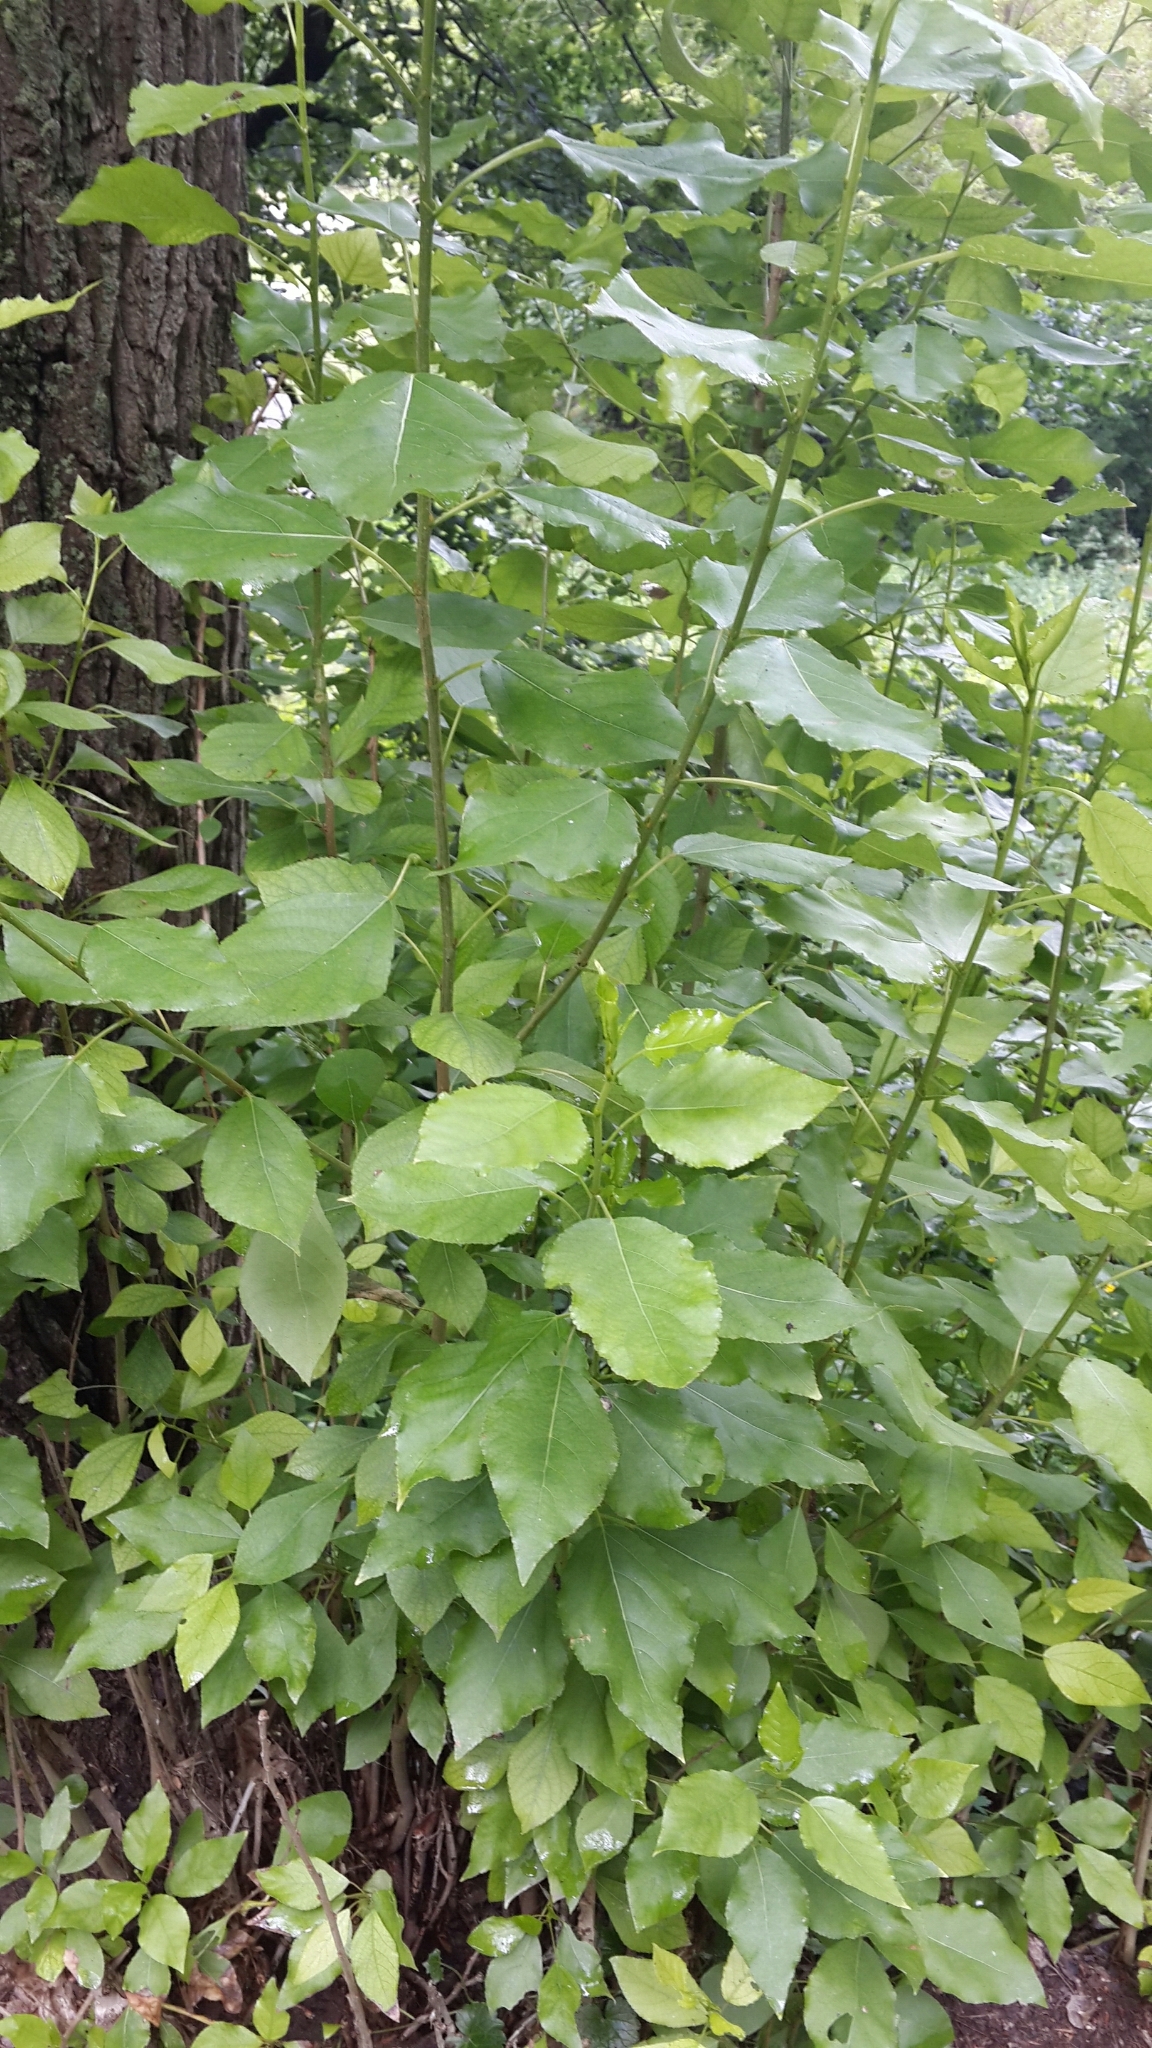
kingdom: Plantae
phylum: Tracheophyta
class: Magnoliopsida
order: Malpighiales
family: Salicaceae
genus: Populus
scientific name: Populus
